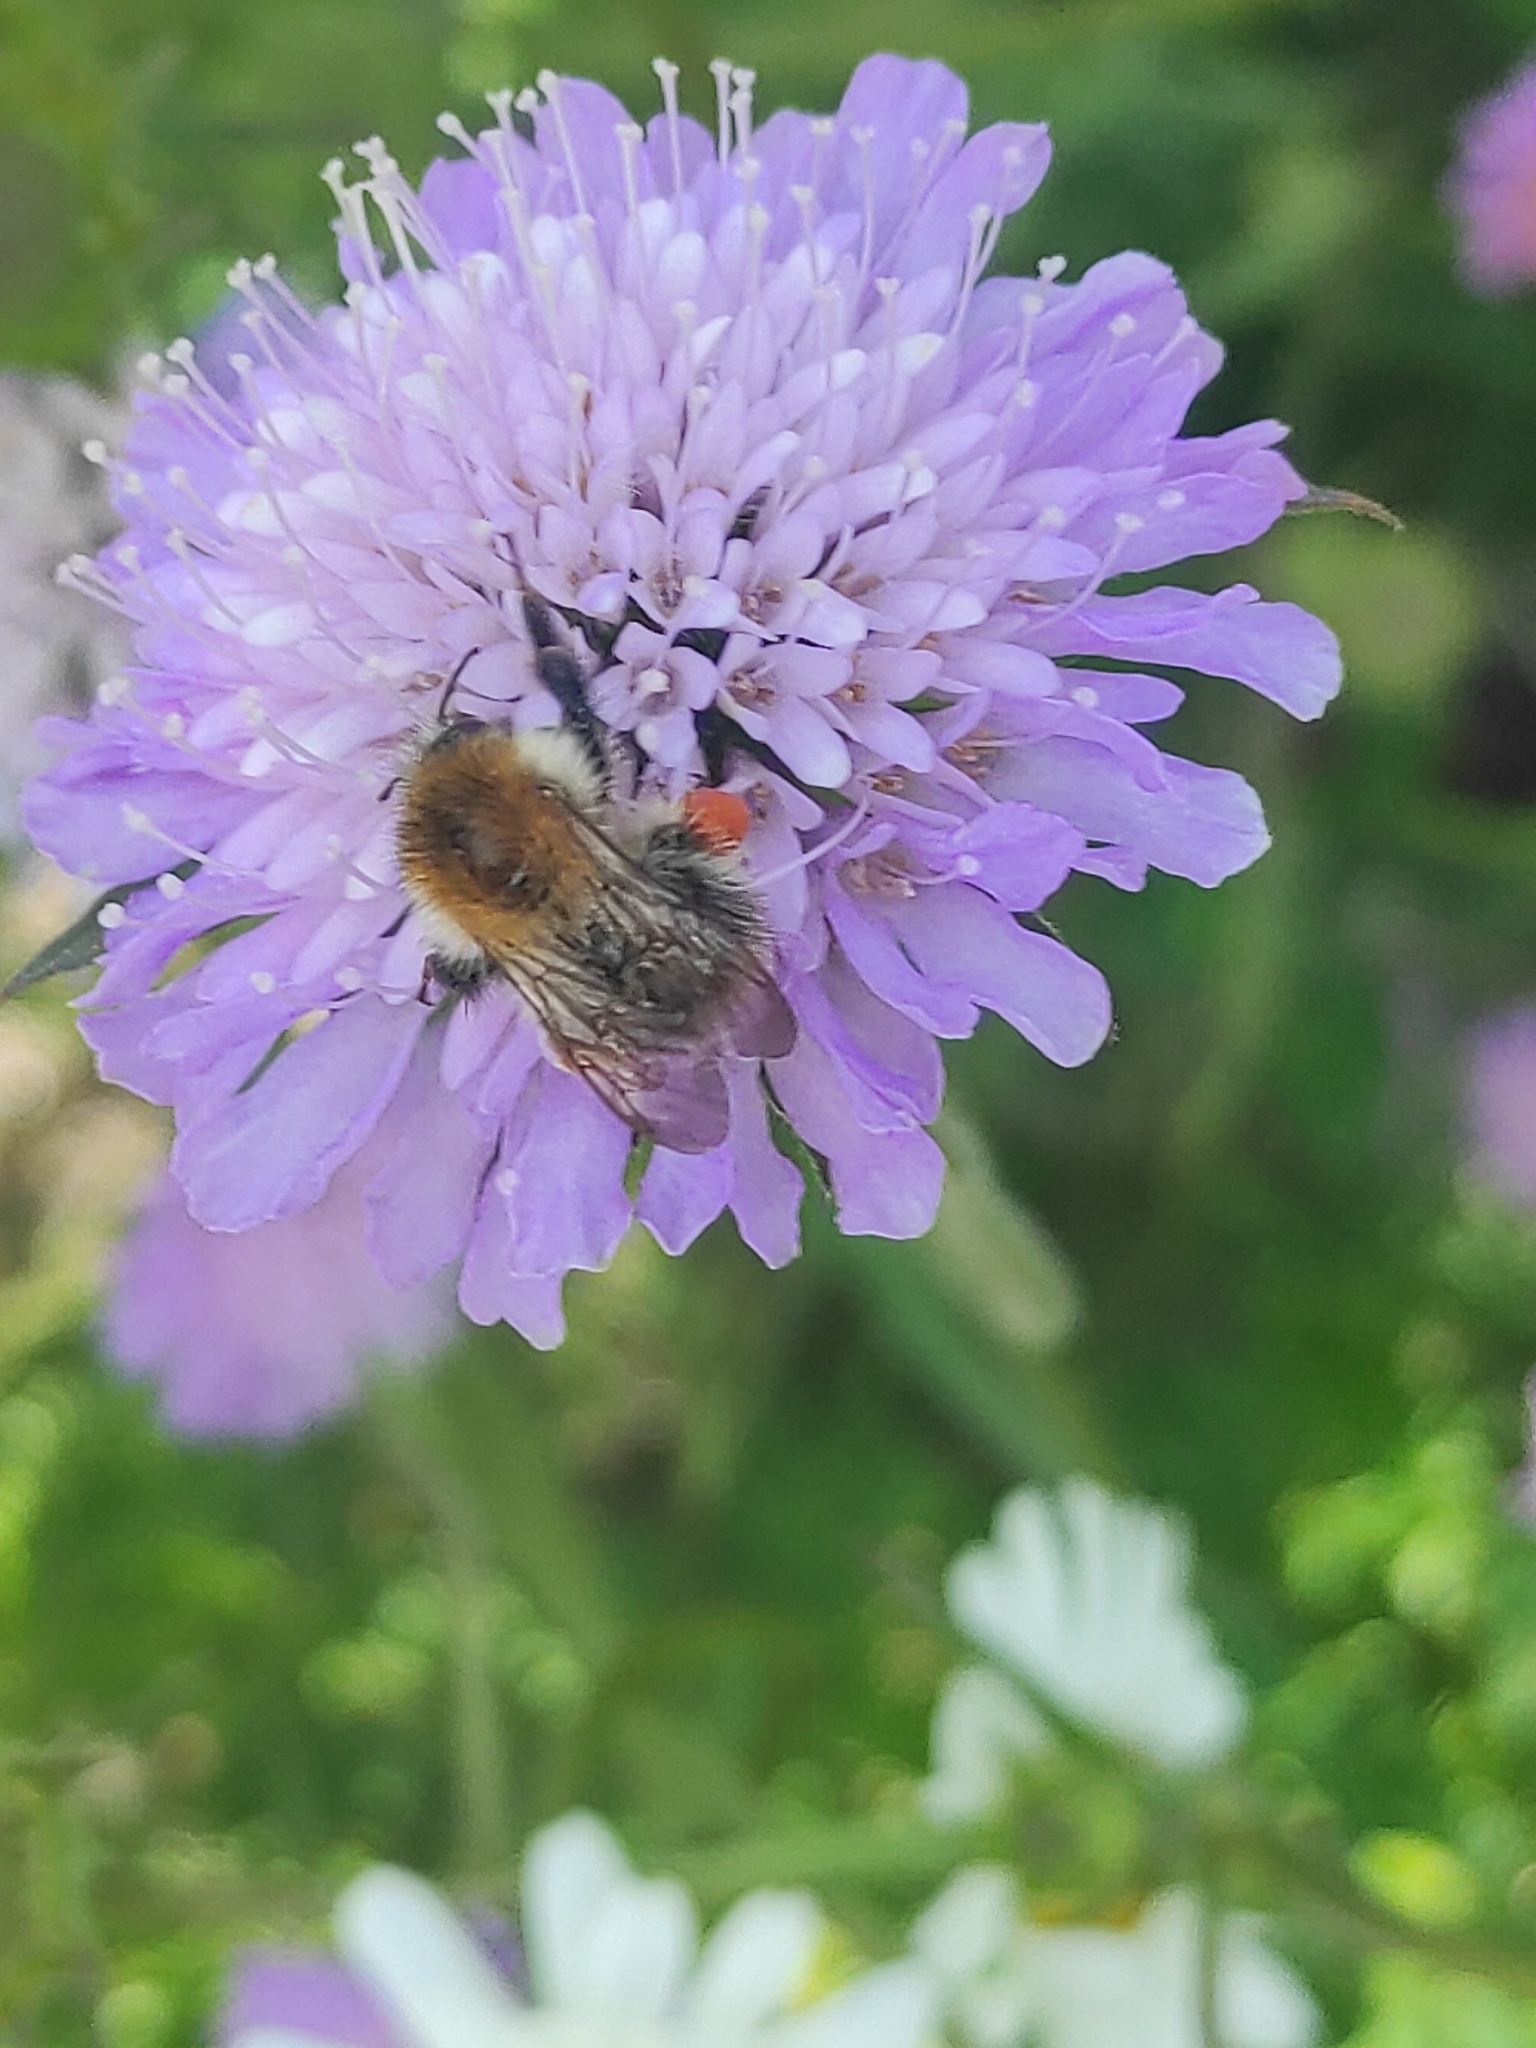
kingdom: Animalia
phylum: Arthropoda
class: Insecta
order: Hymenoptera
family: Apidae
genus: Bombus
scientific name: Bombus pascuorum
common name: Common carder bee
